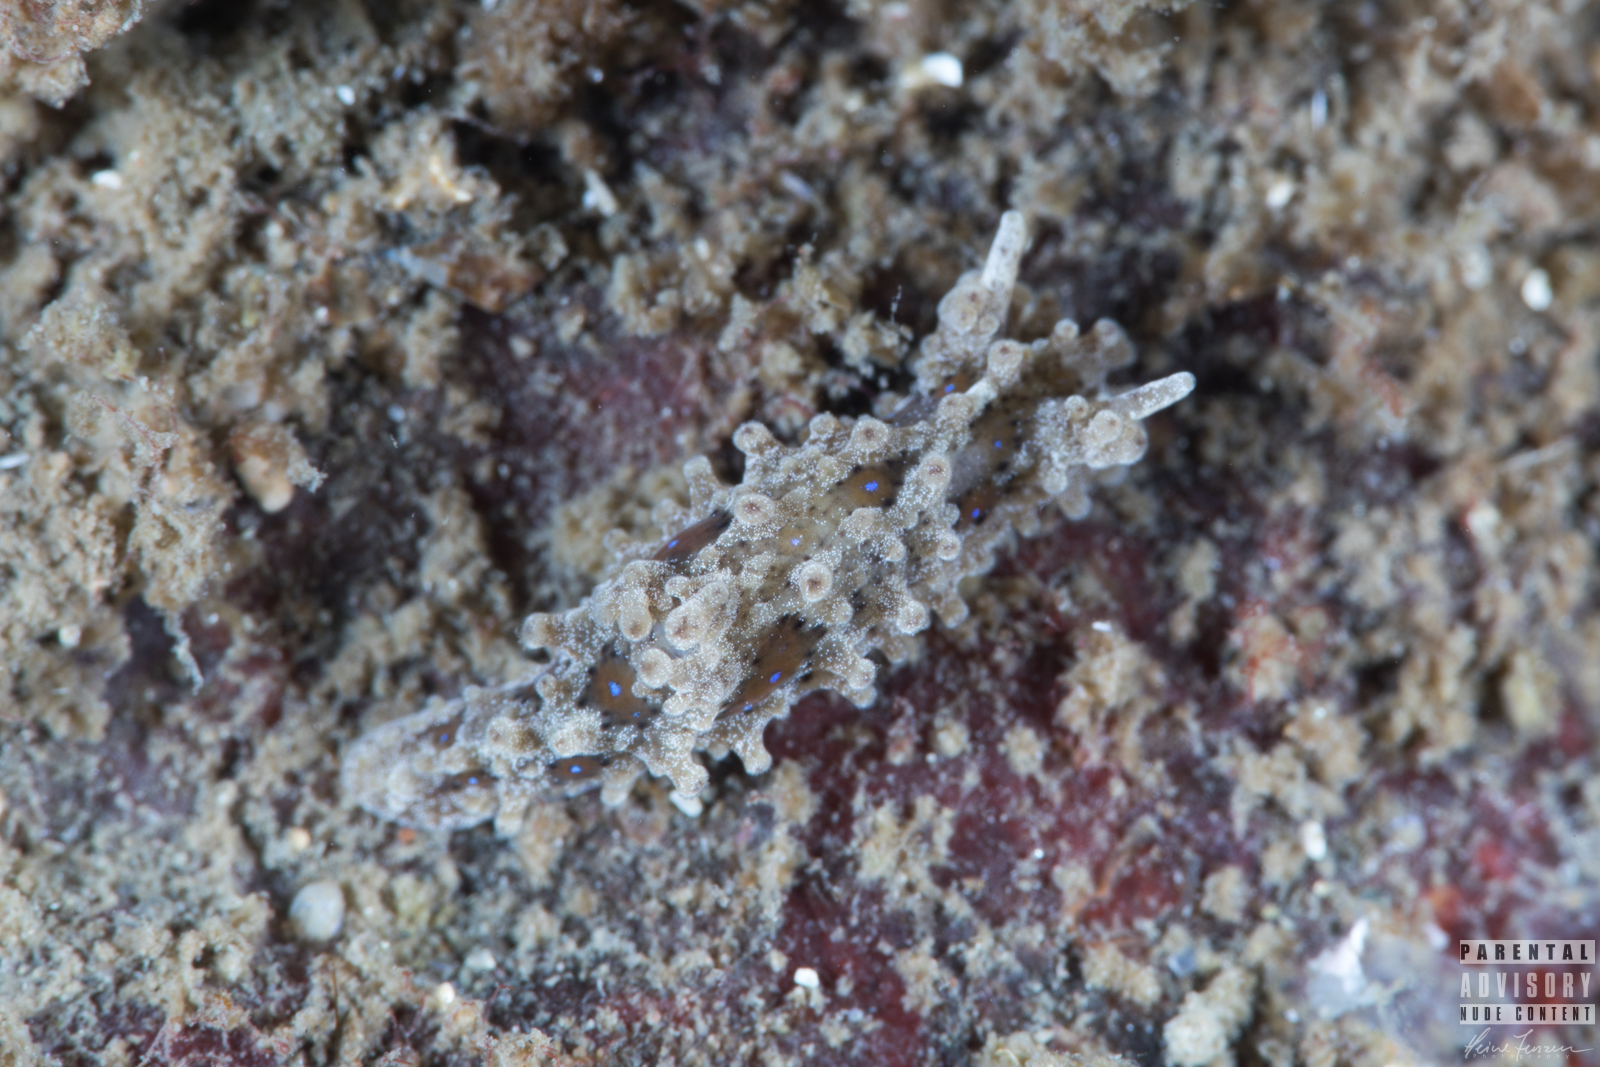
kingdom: Animalia
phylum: Mollusca
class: Gastropoda
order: Nudibranchia
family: Aegiridae
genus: Aegires
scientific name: Aegires punctilucens
